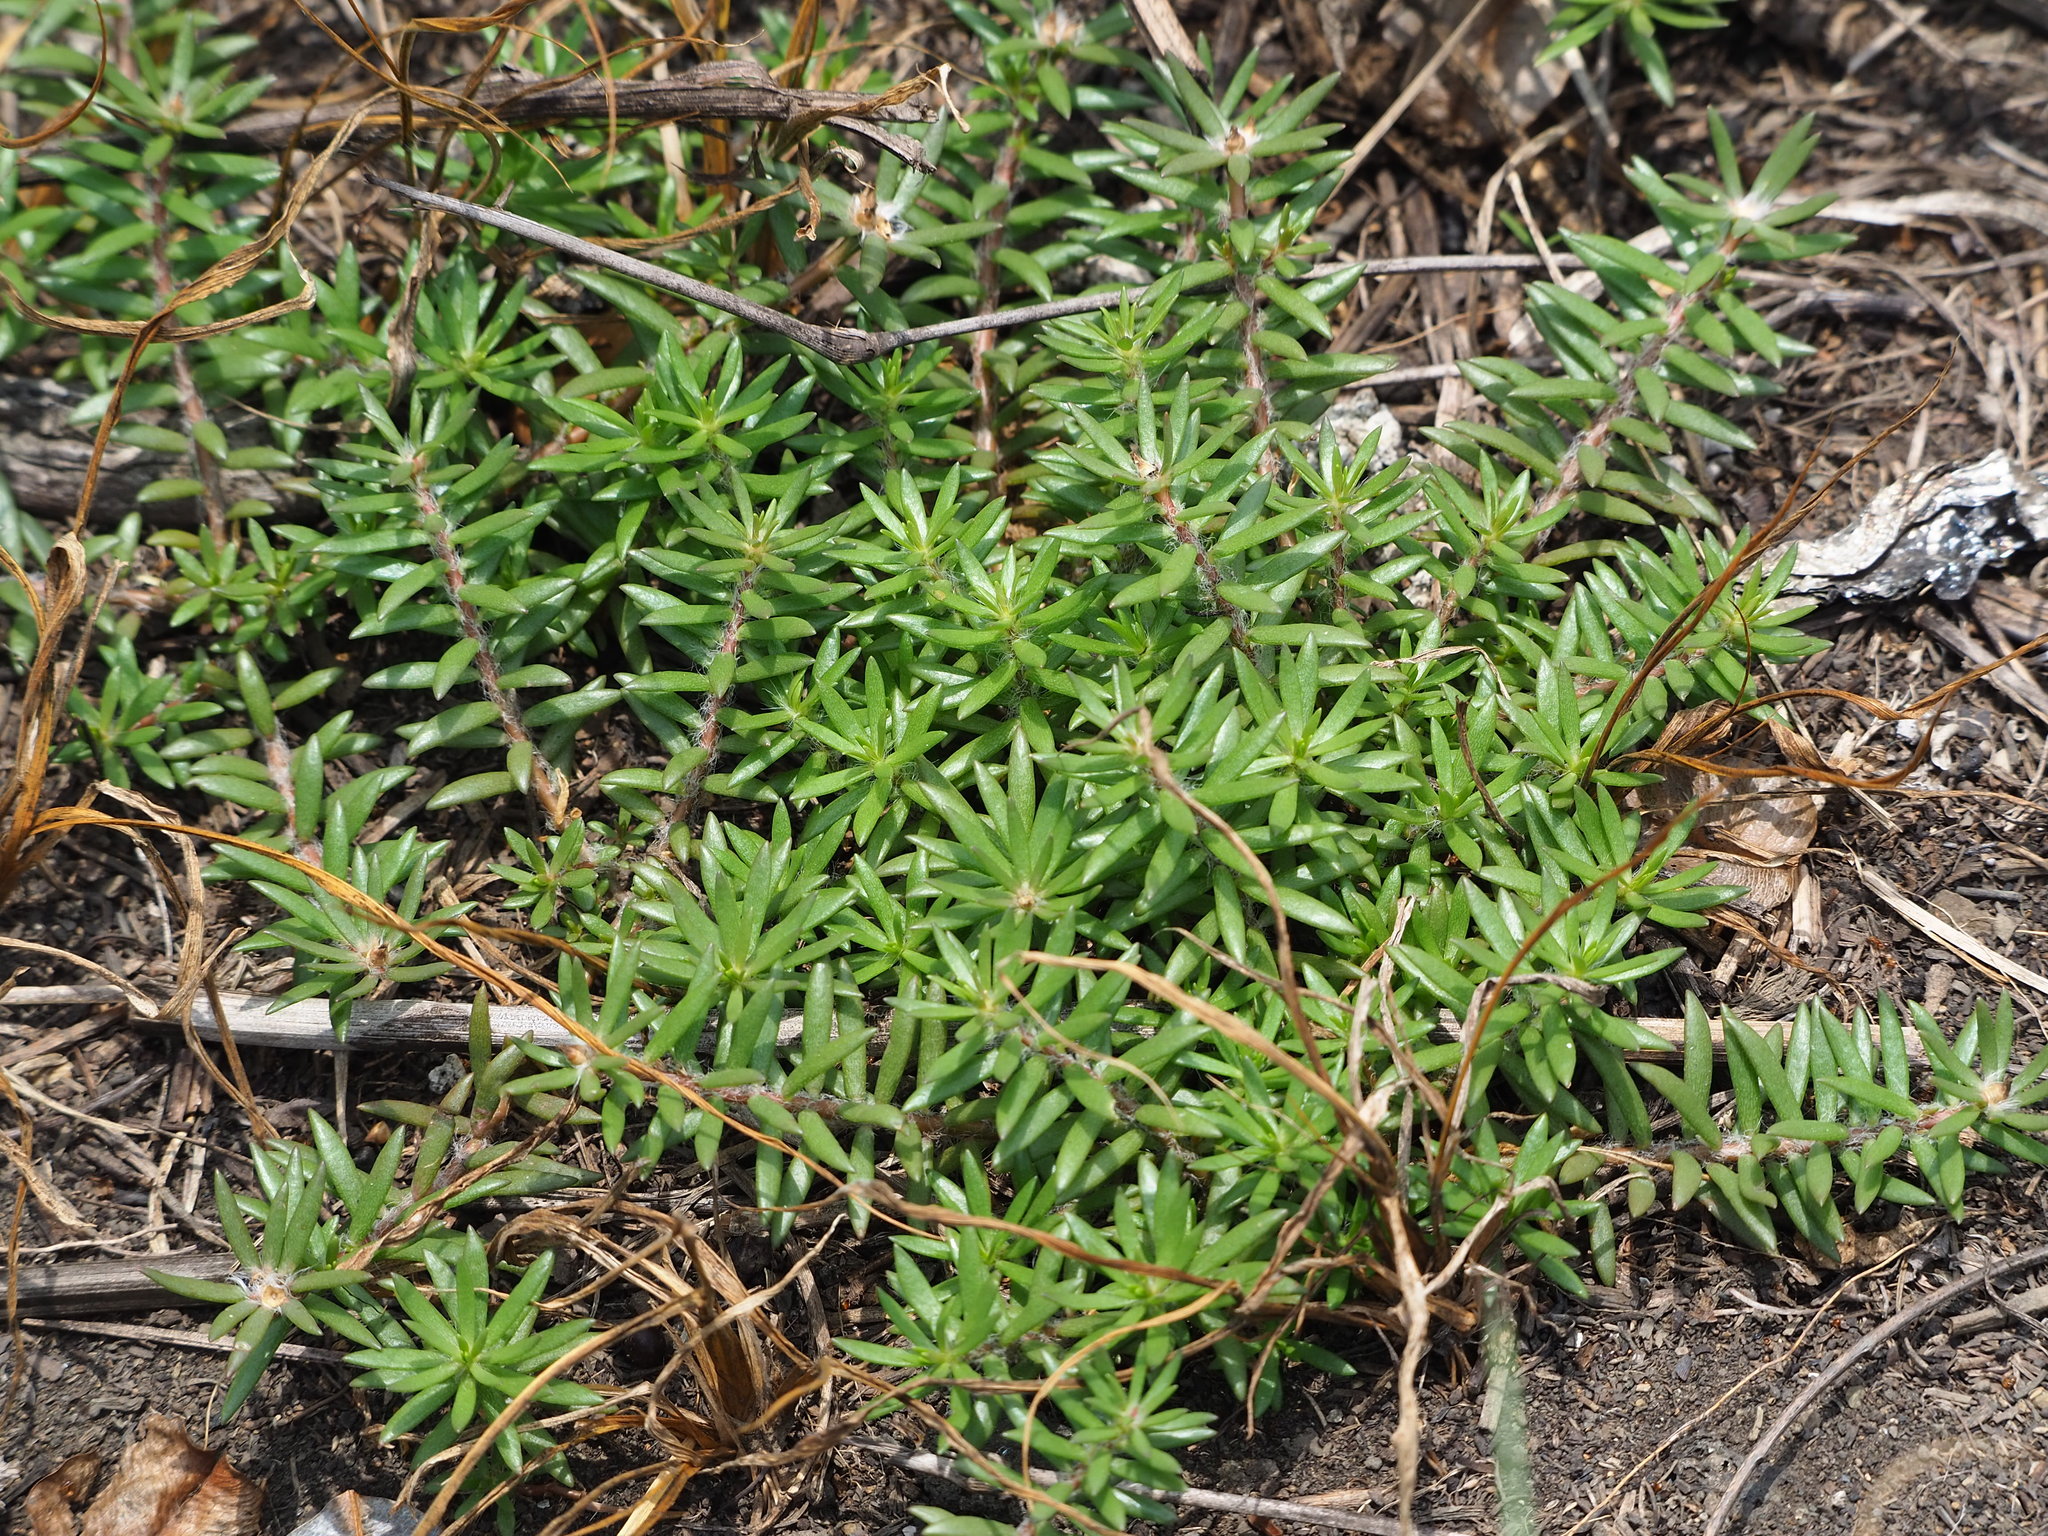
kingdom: Plantae
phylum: Tracheophyta
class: Magnoliopsida
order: Caryophyllales
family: Portulacaceae
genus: Portulaca
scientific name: Portulaca pilosa
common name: Kiss me quick
